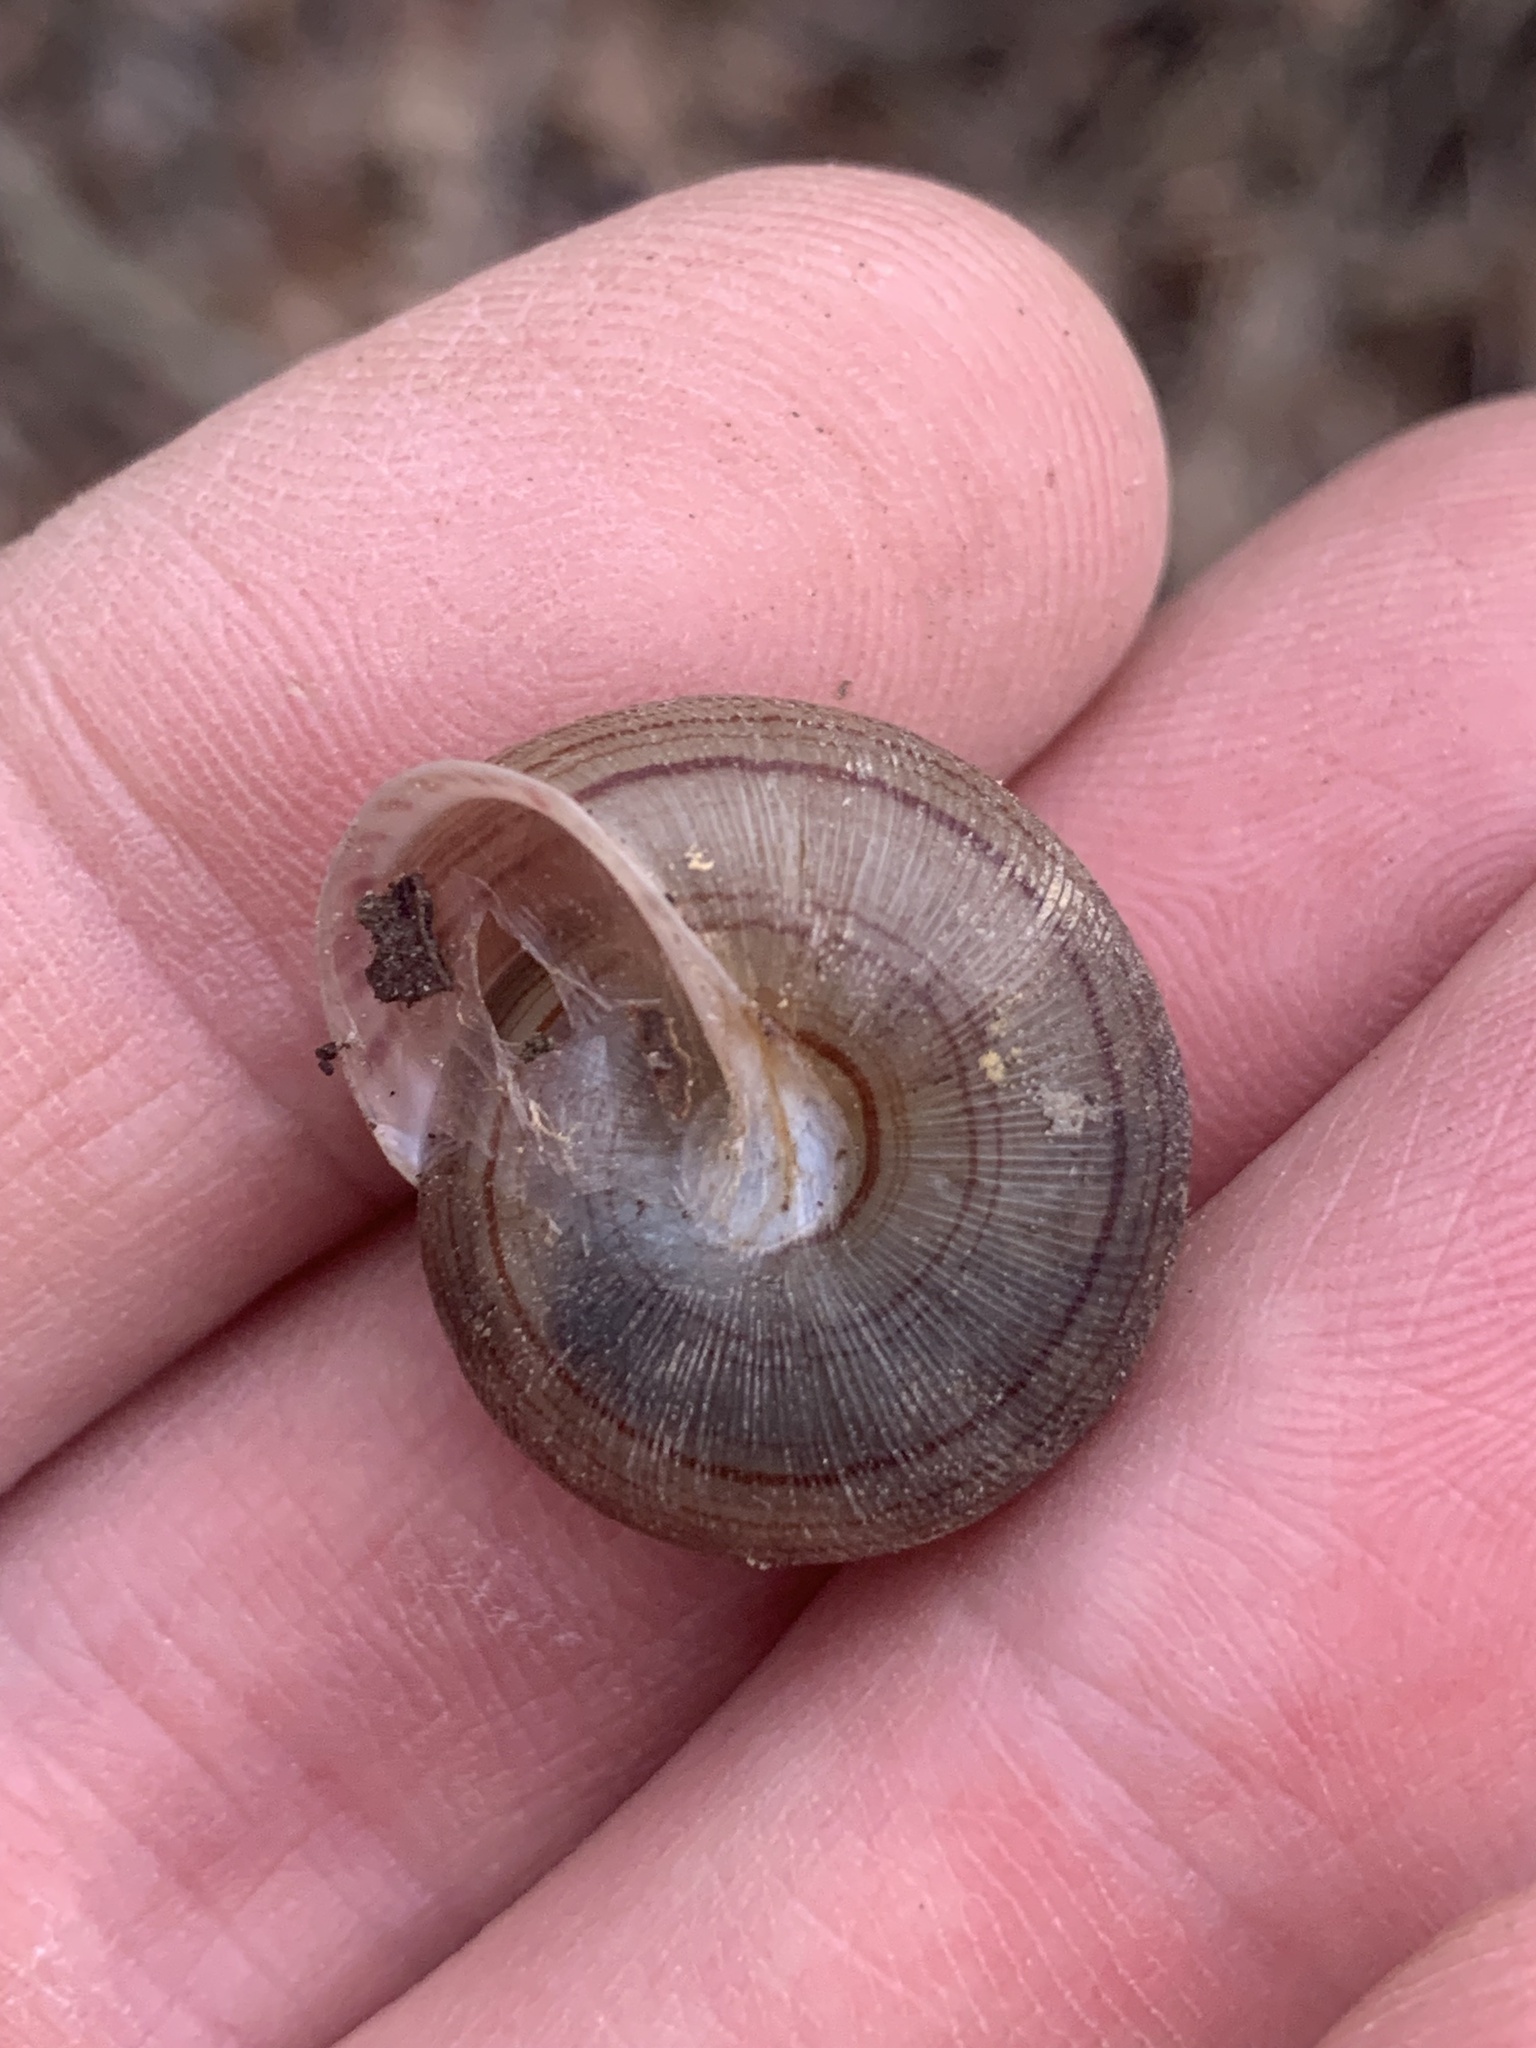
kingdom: Animalia
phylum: Mollusca
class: Gastropoda
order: Stylommatophora
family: Polygyridae
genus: Webbhelix
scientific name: Webbhelix multilineata
